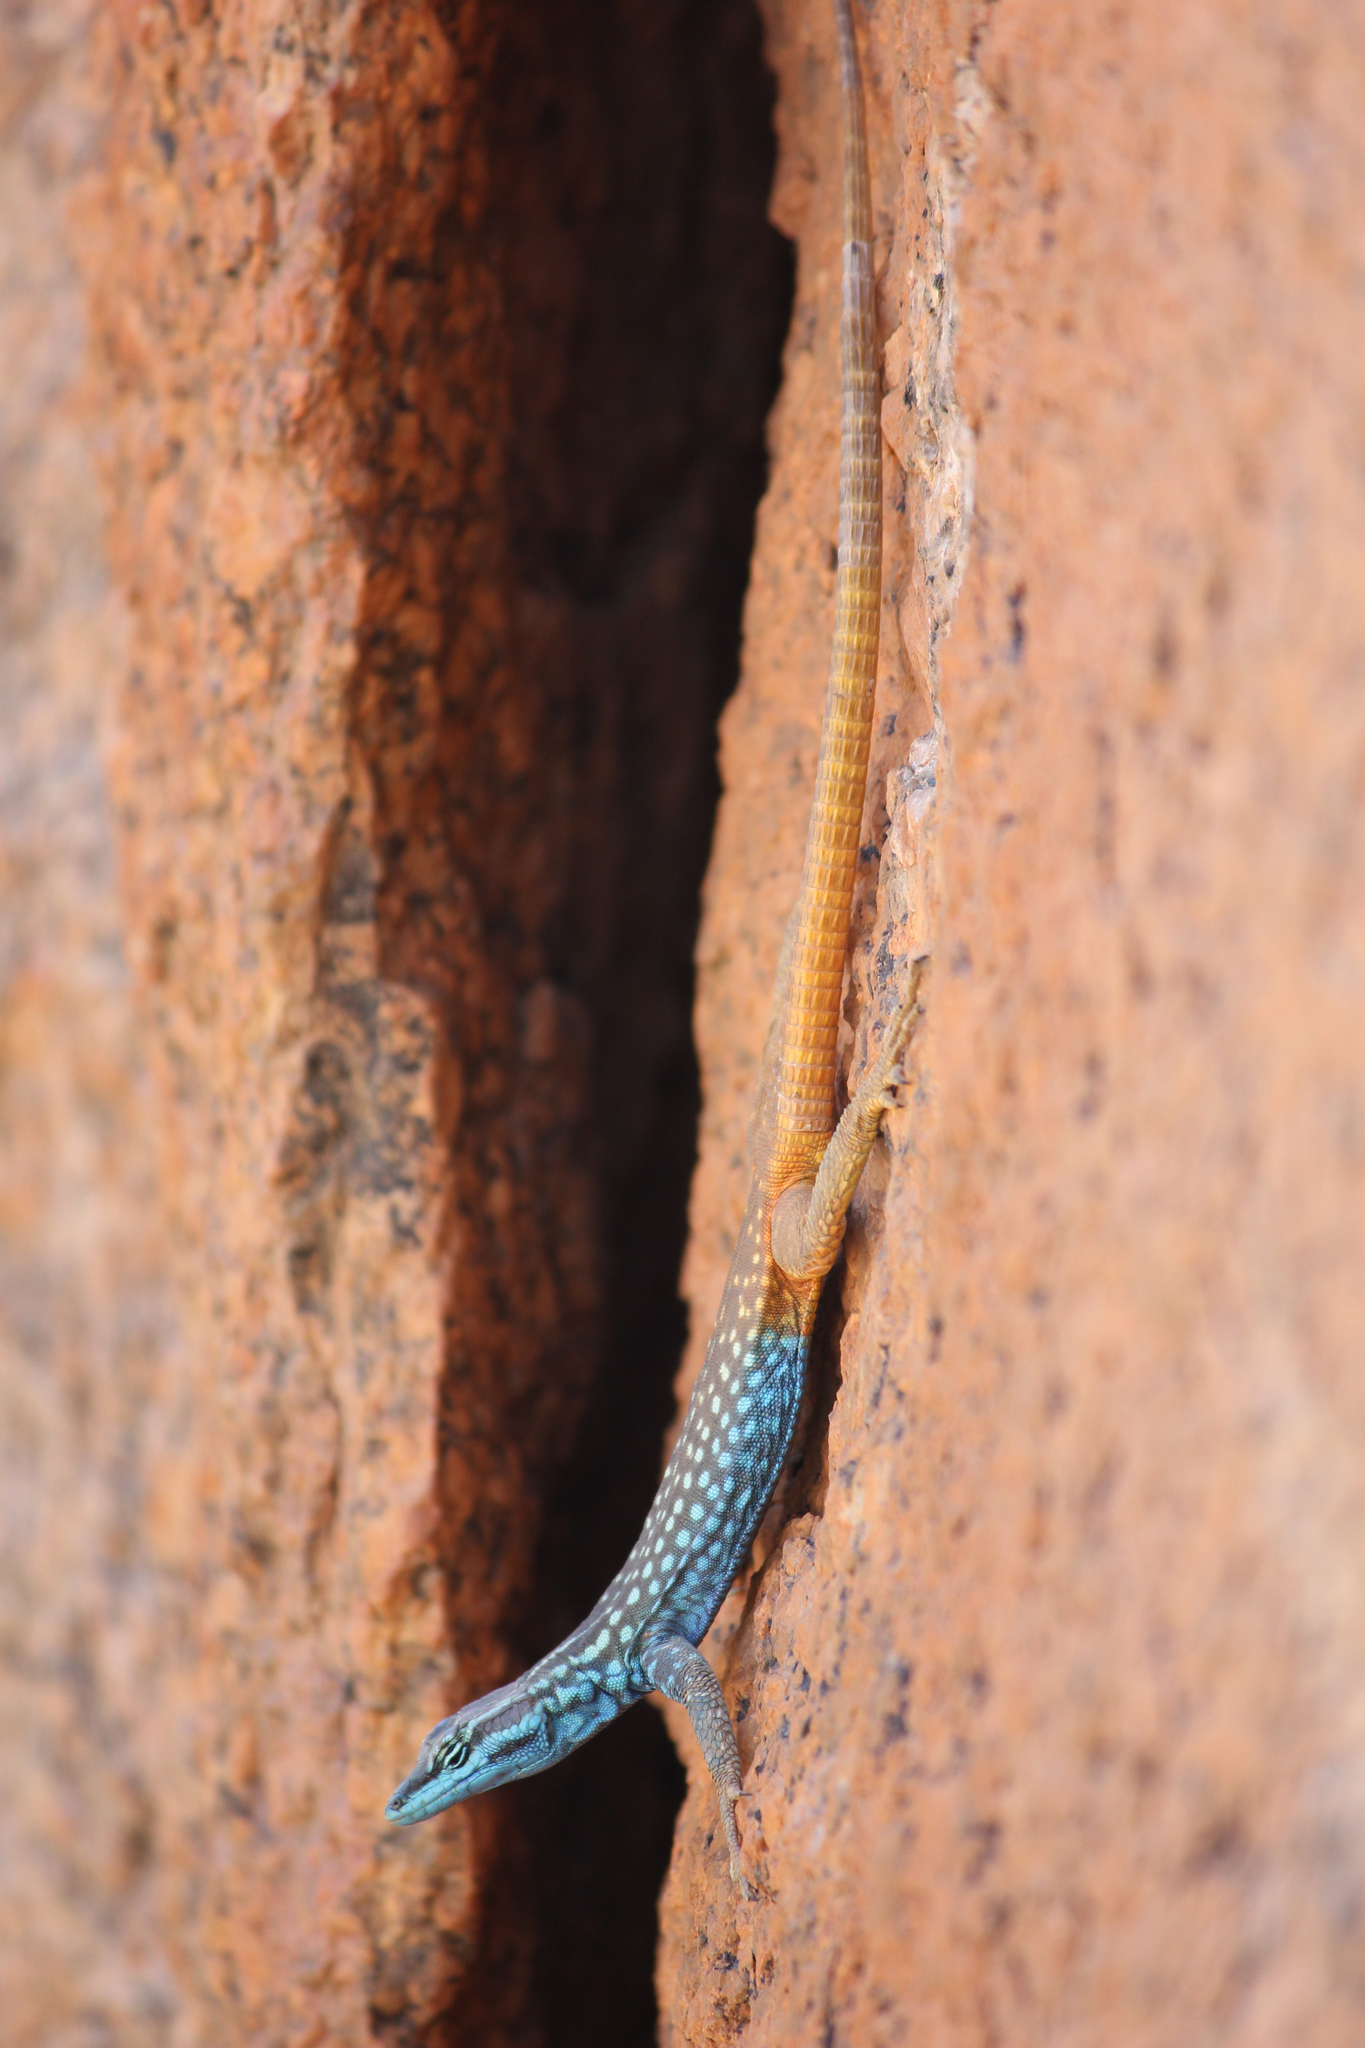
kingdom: Animalia
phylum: Chordata
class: Squamata
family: Cordylidae
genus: Platysaurus
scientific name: Platysaurus attenboroughi
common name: Attenborough’s flat lizard
